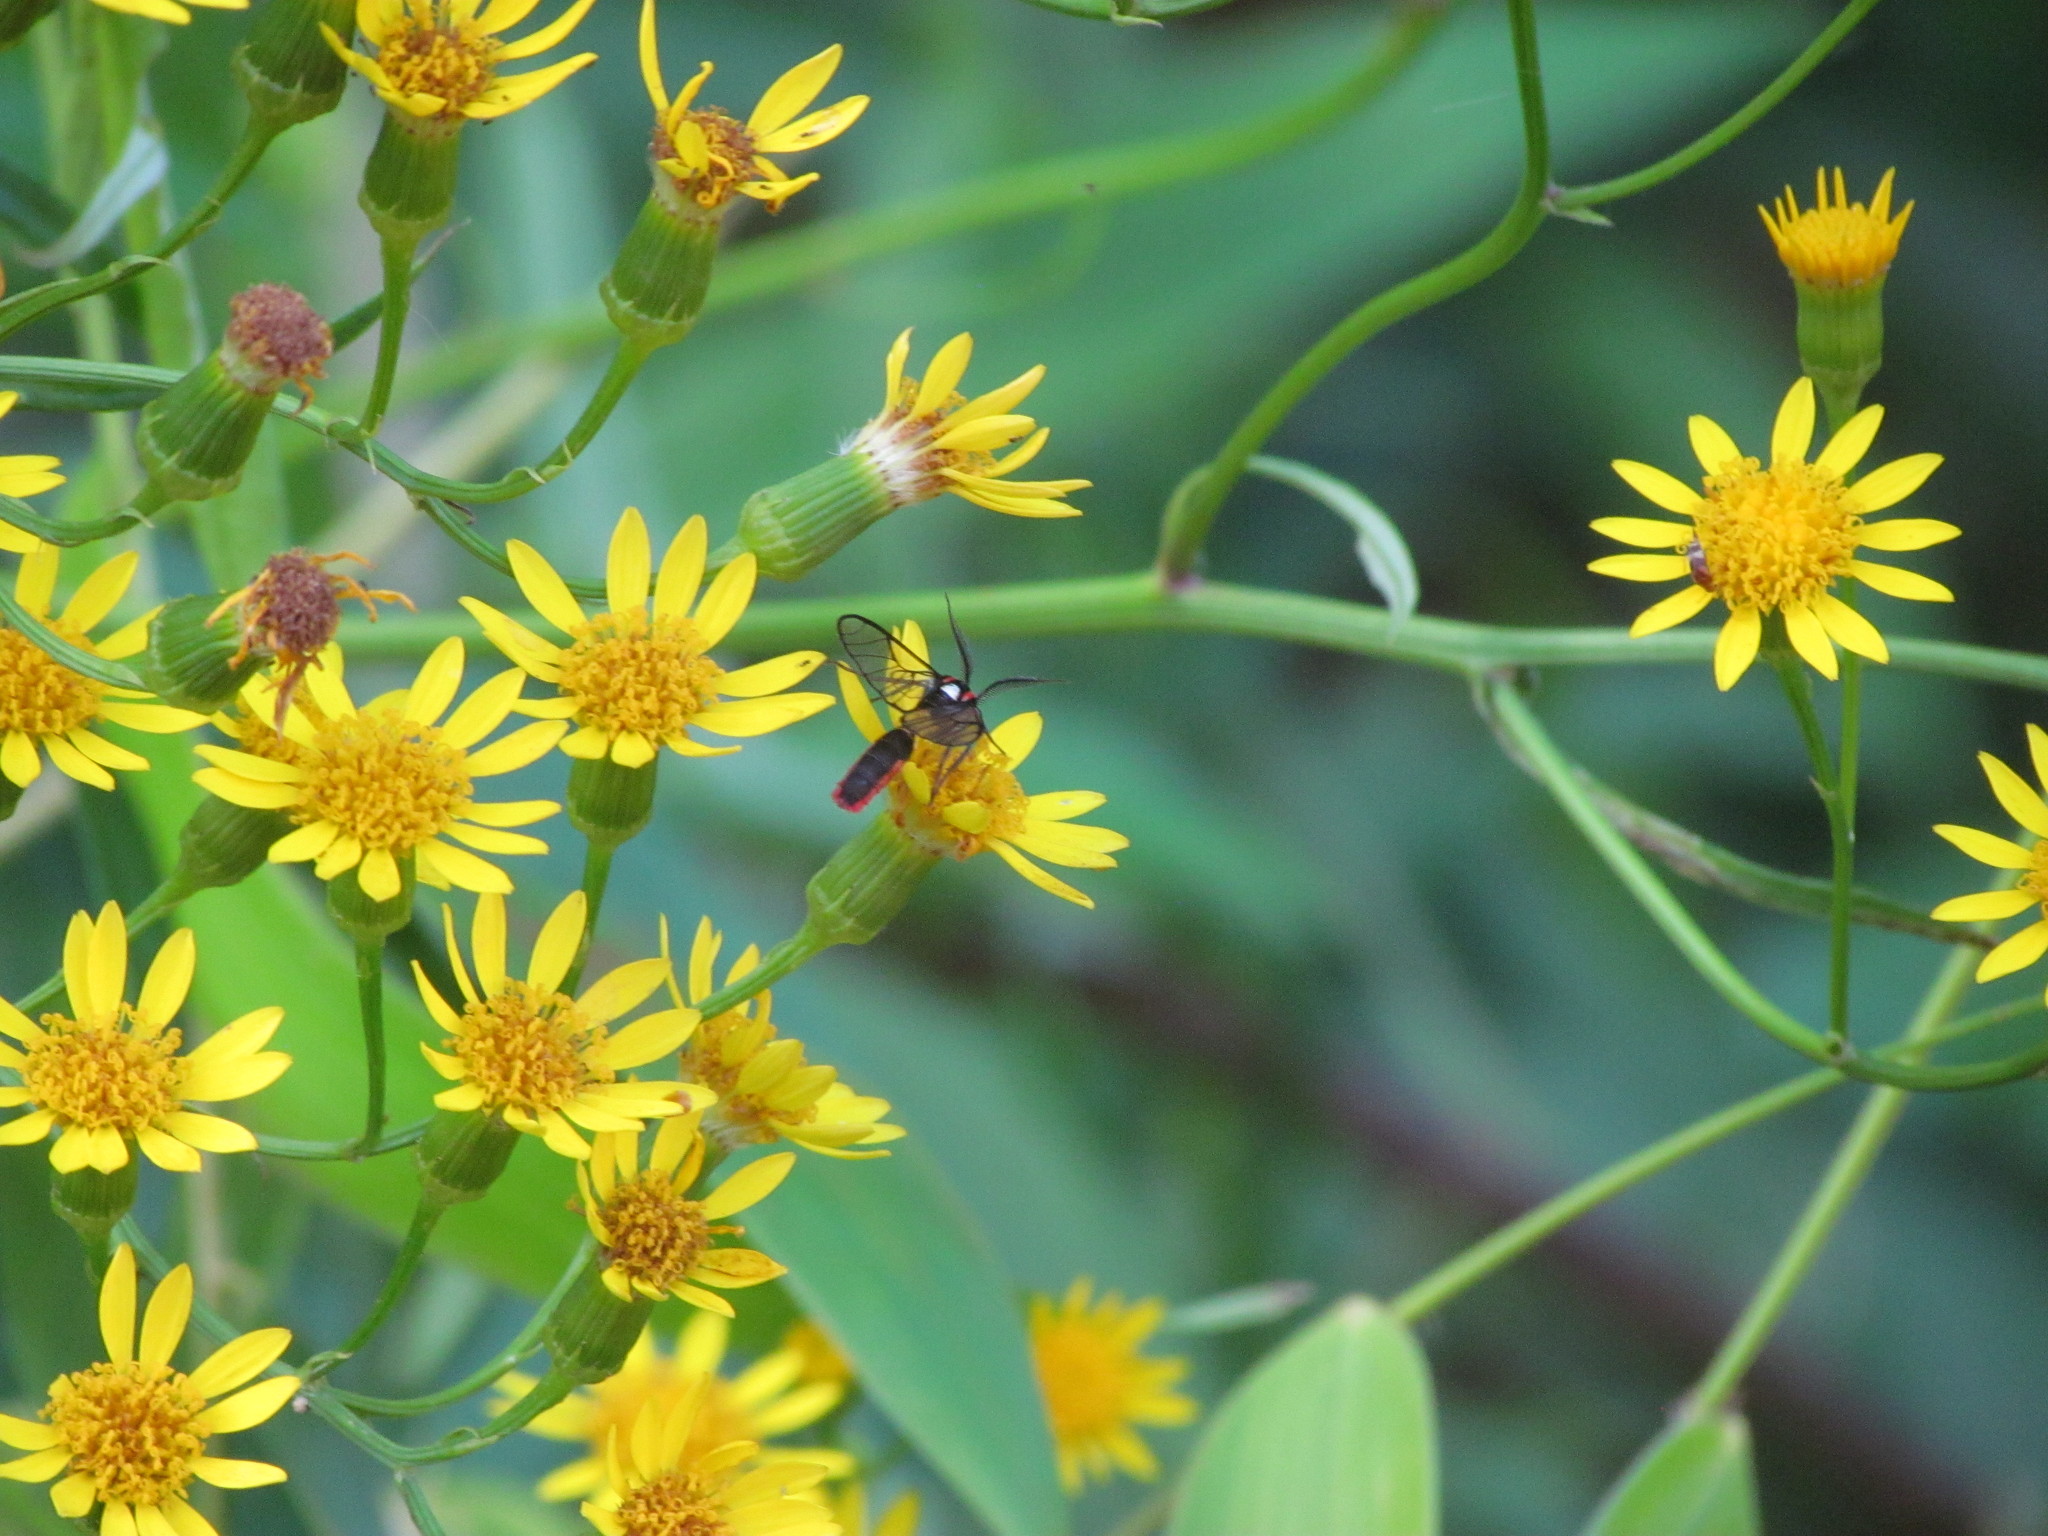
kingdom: Animalia
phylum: Arthropoda
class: Insecta
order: Lepidoptera
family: Erebidae
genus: Argyroeides
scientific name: Argyroeides braco
